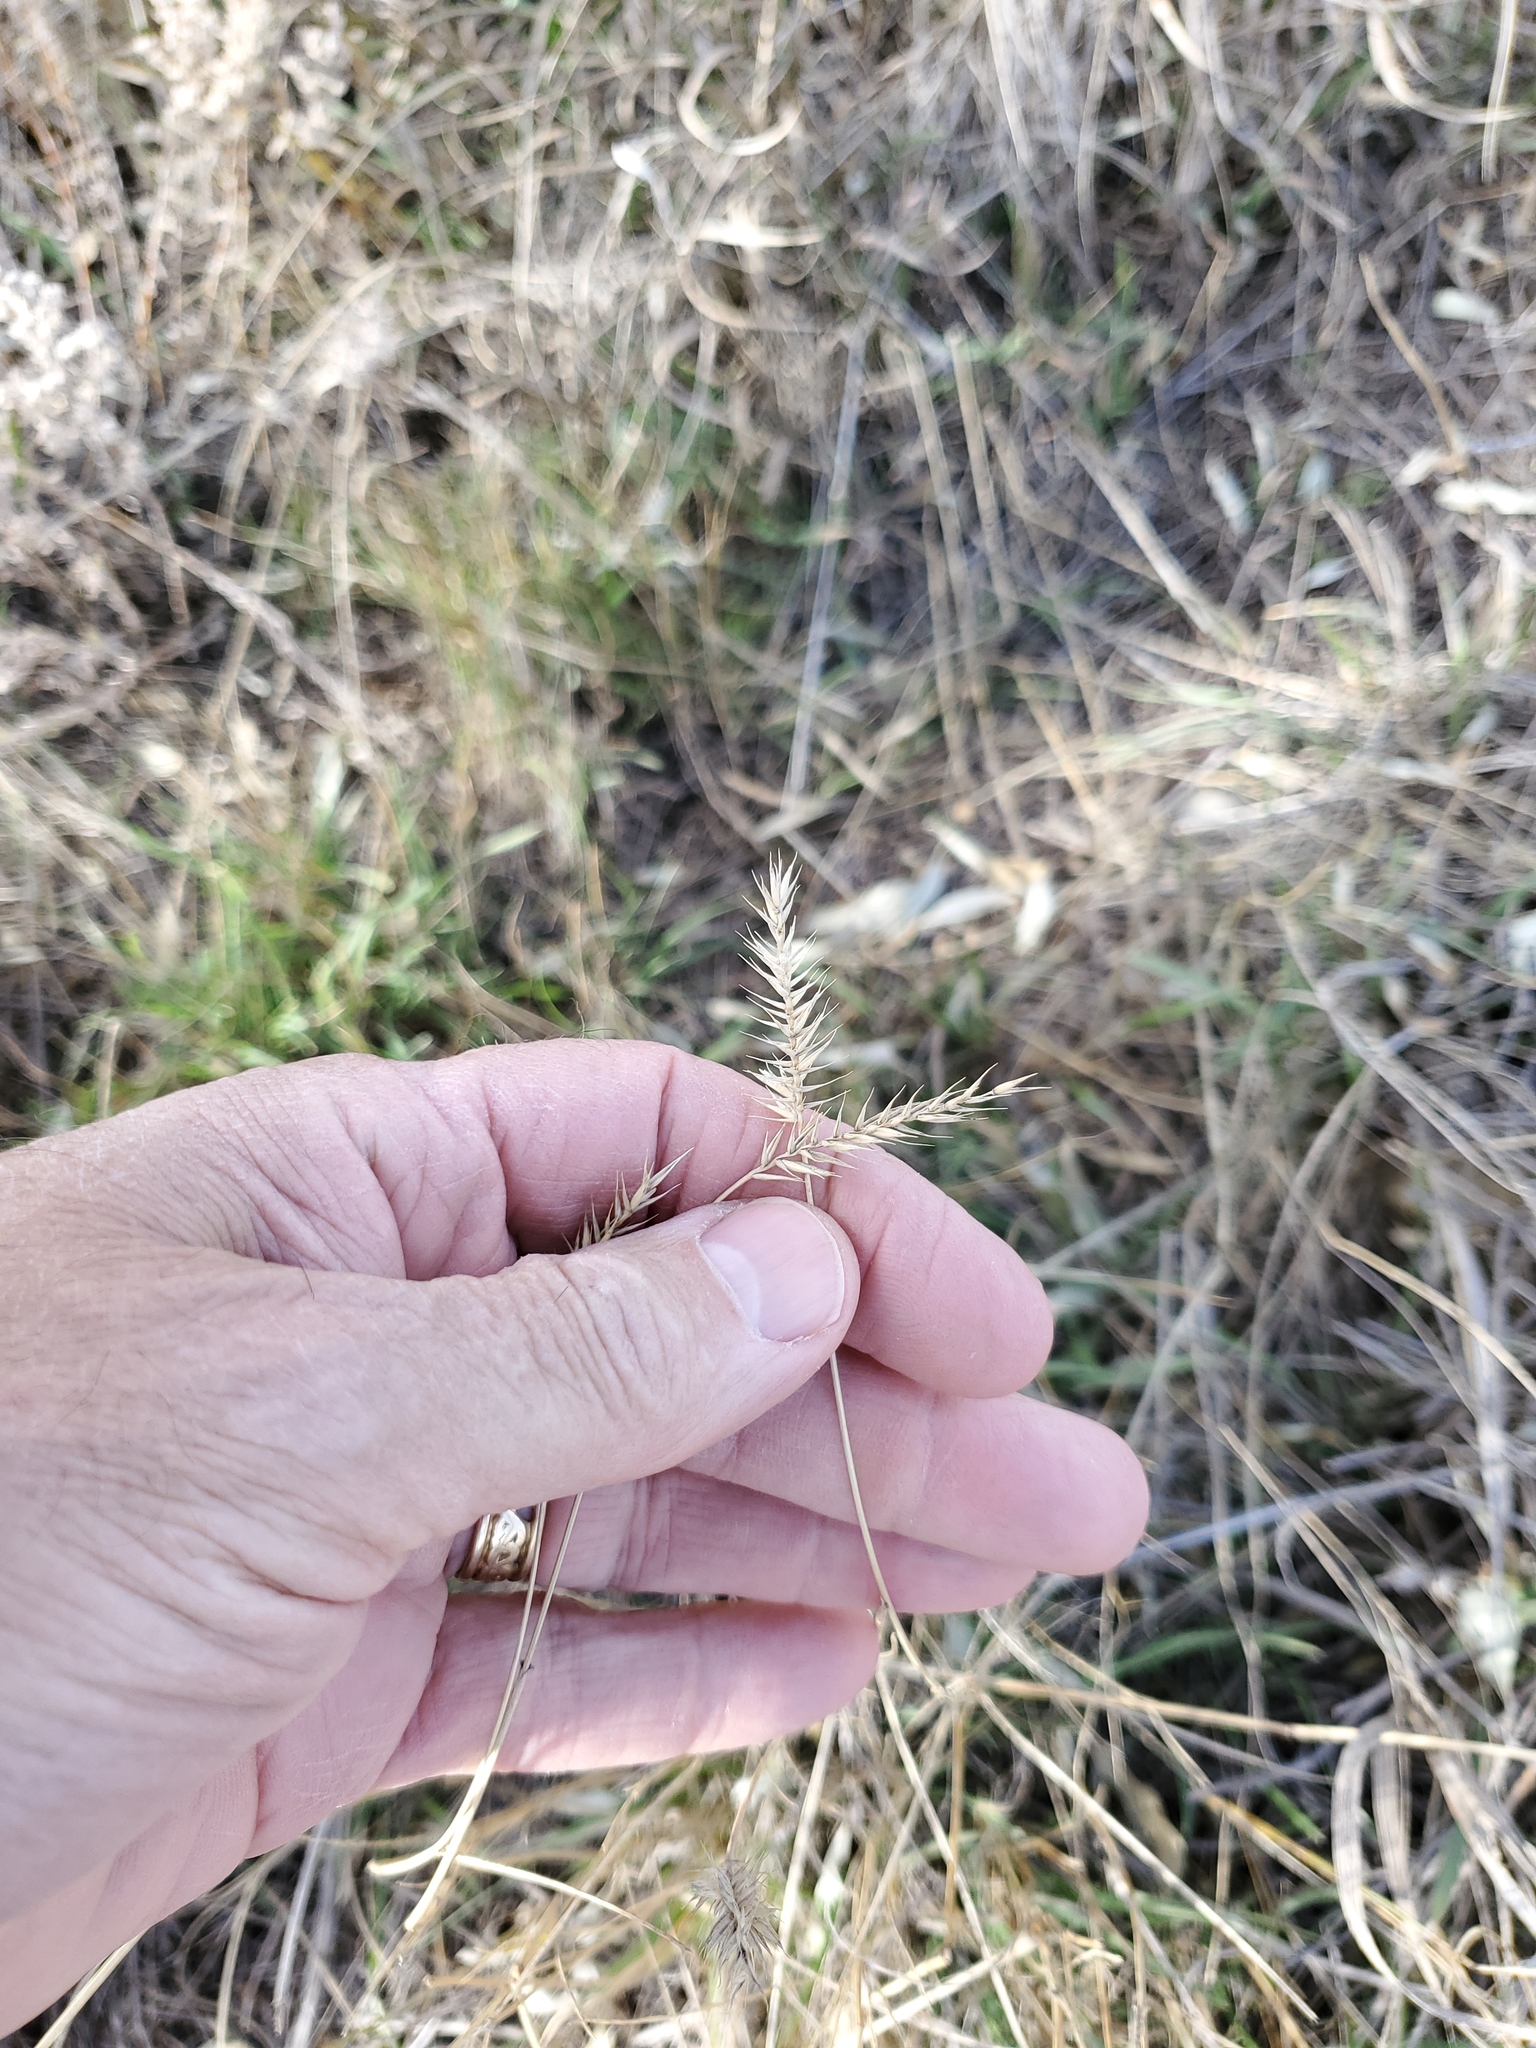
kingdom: Plantae
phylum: Tracheophyta
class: Liliopsida
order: Poales
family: Poaceae
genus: Agropyron
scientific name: Agropyron cristatum
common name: Crested wheatgrass
